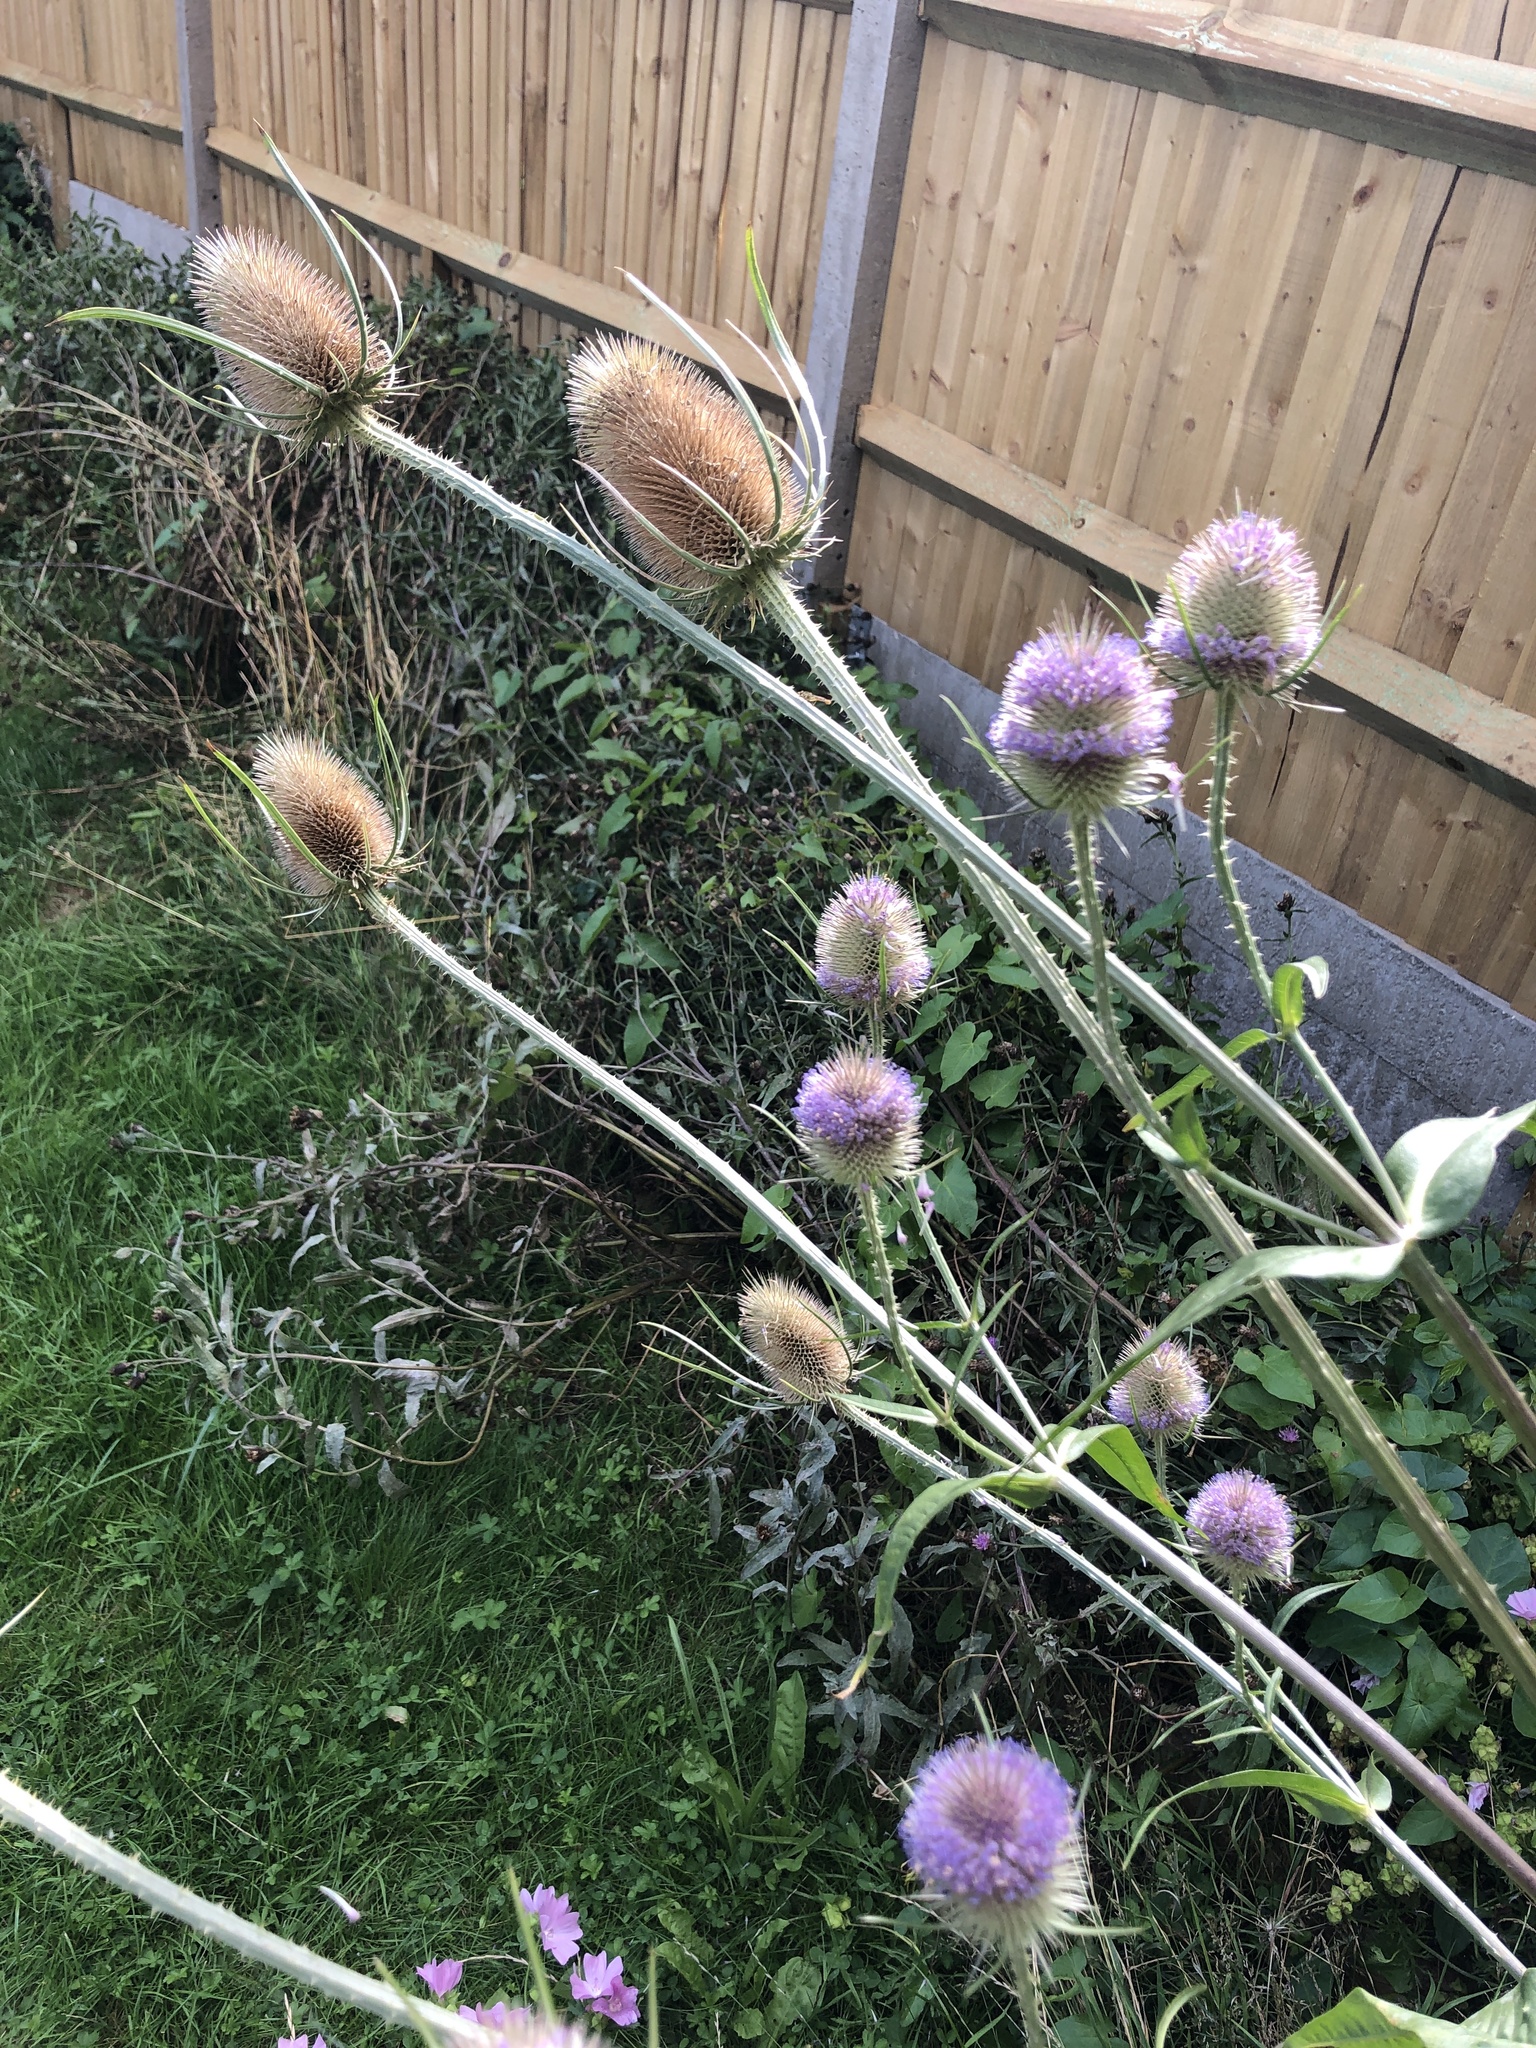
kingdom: Plantae
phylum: Tracheophyta
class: Magnoliopsida
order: Dipsacales
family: Caprifoliaceae
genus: Dipsacus
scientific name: Dipsacus fullonum
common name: Teasel
